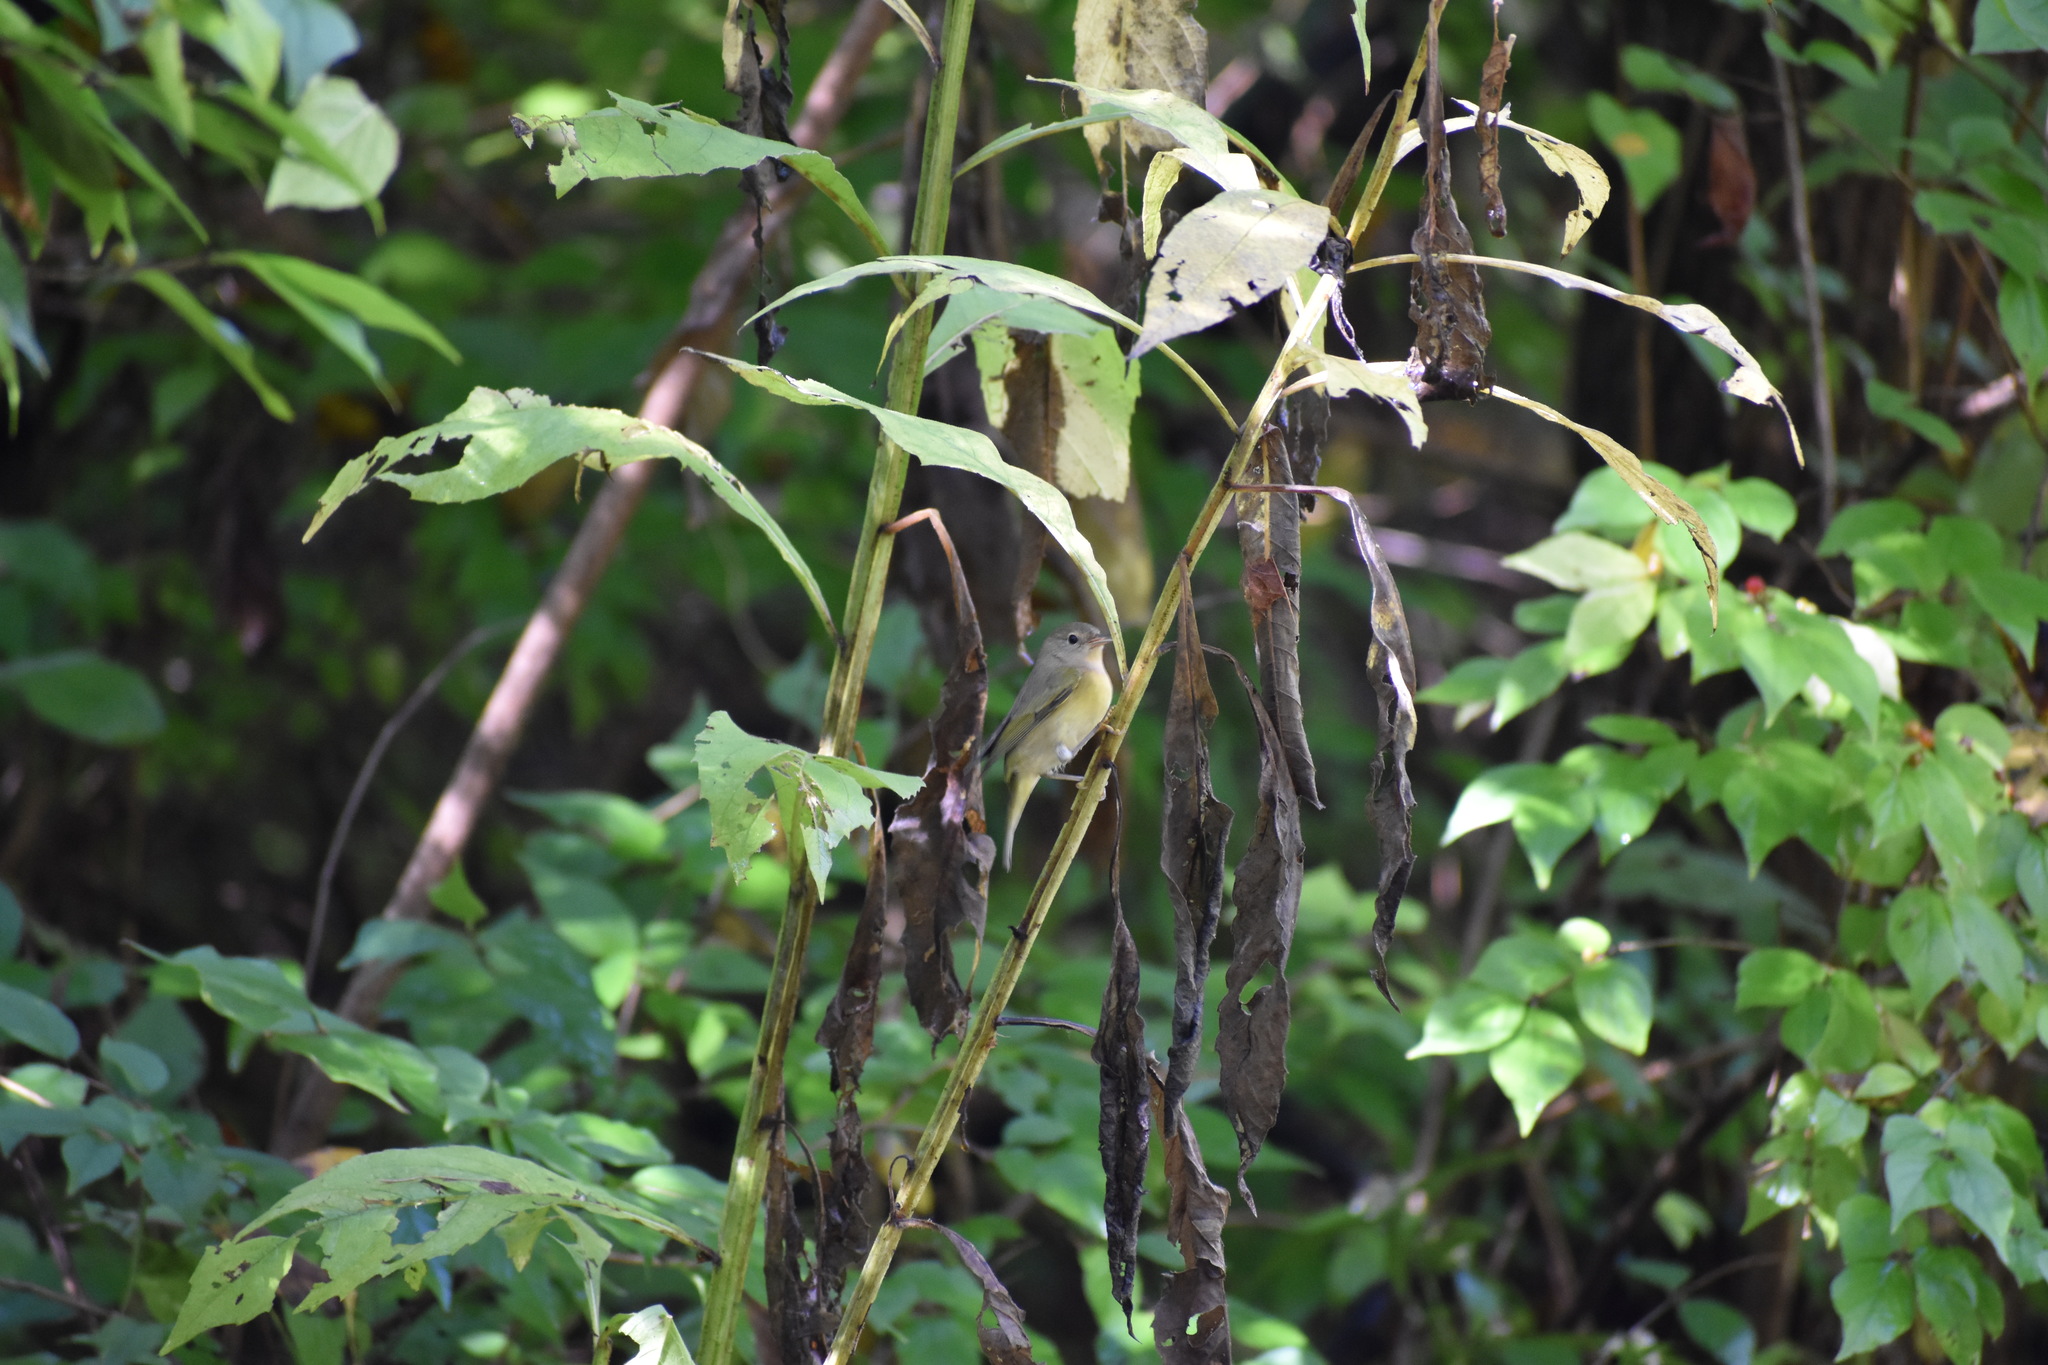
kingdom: Animalia
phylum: Chordata
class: Aves
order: Passeriformes
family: Parulidae
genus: Leiothlypis
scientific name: Leiothlypis ruficapilla
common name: Nashville warbler
